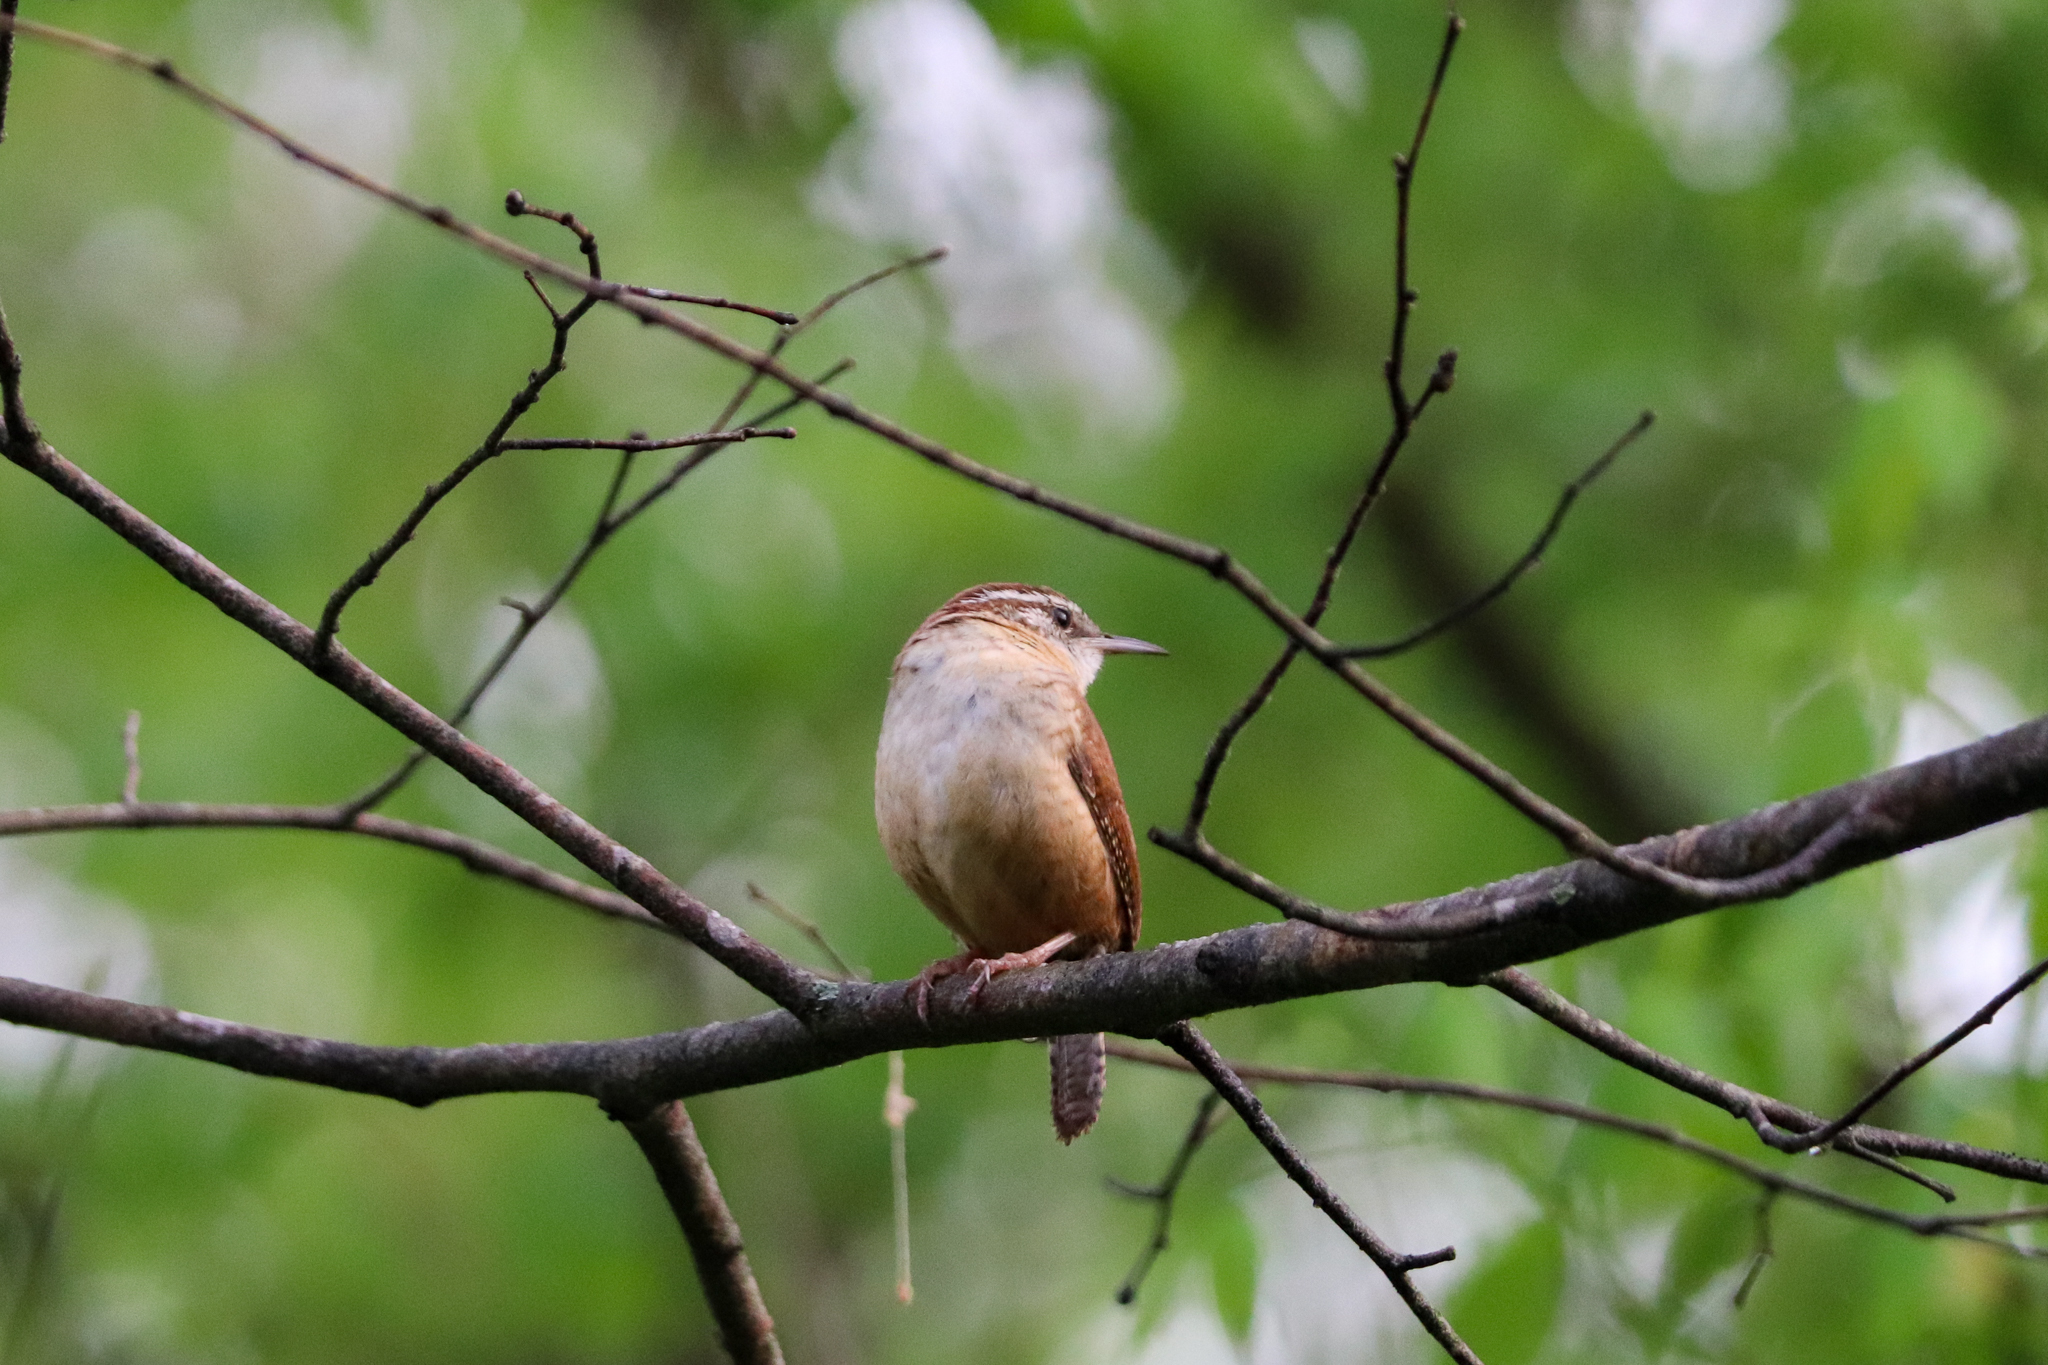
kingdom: Animalia
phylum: Chordata
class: Aves
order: Passeriformes
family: Troglodytidae
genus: Thryothorus
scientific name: Thryothorus ludovicianus
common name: Carolina wren
